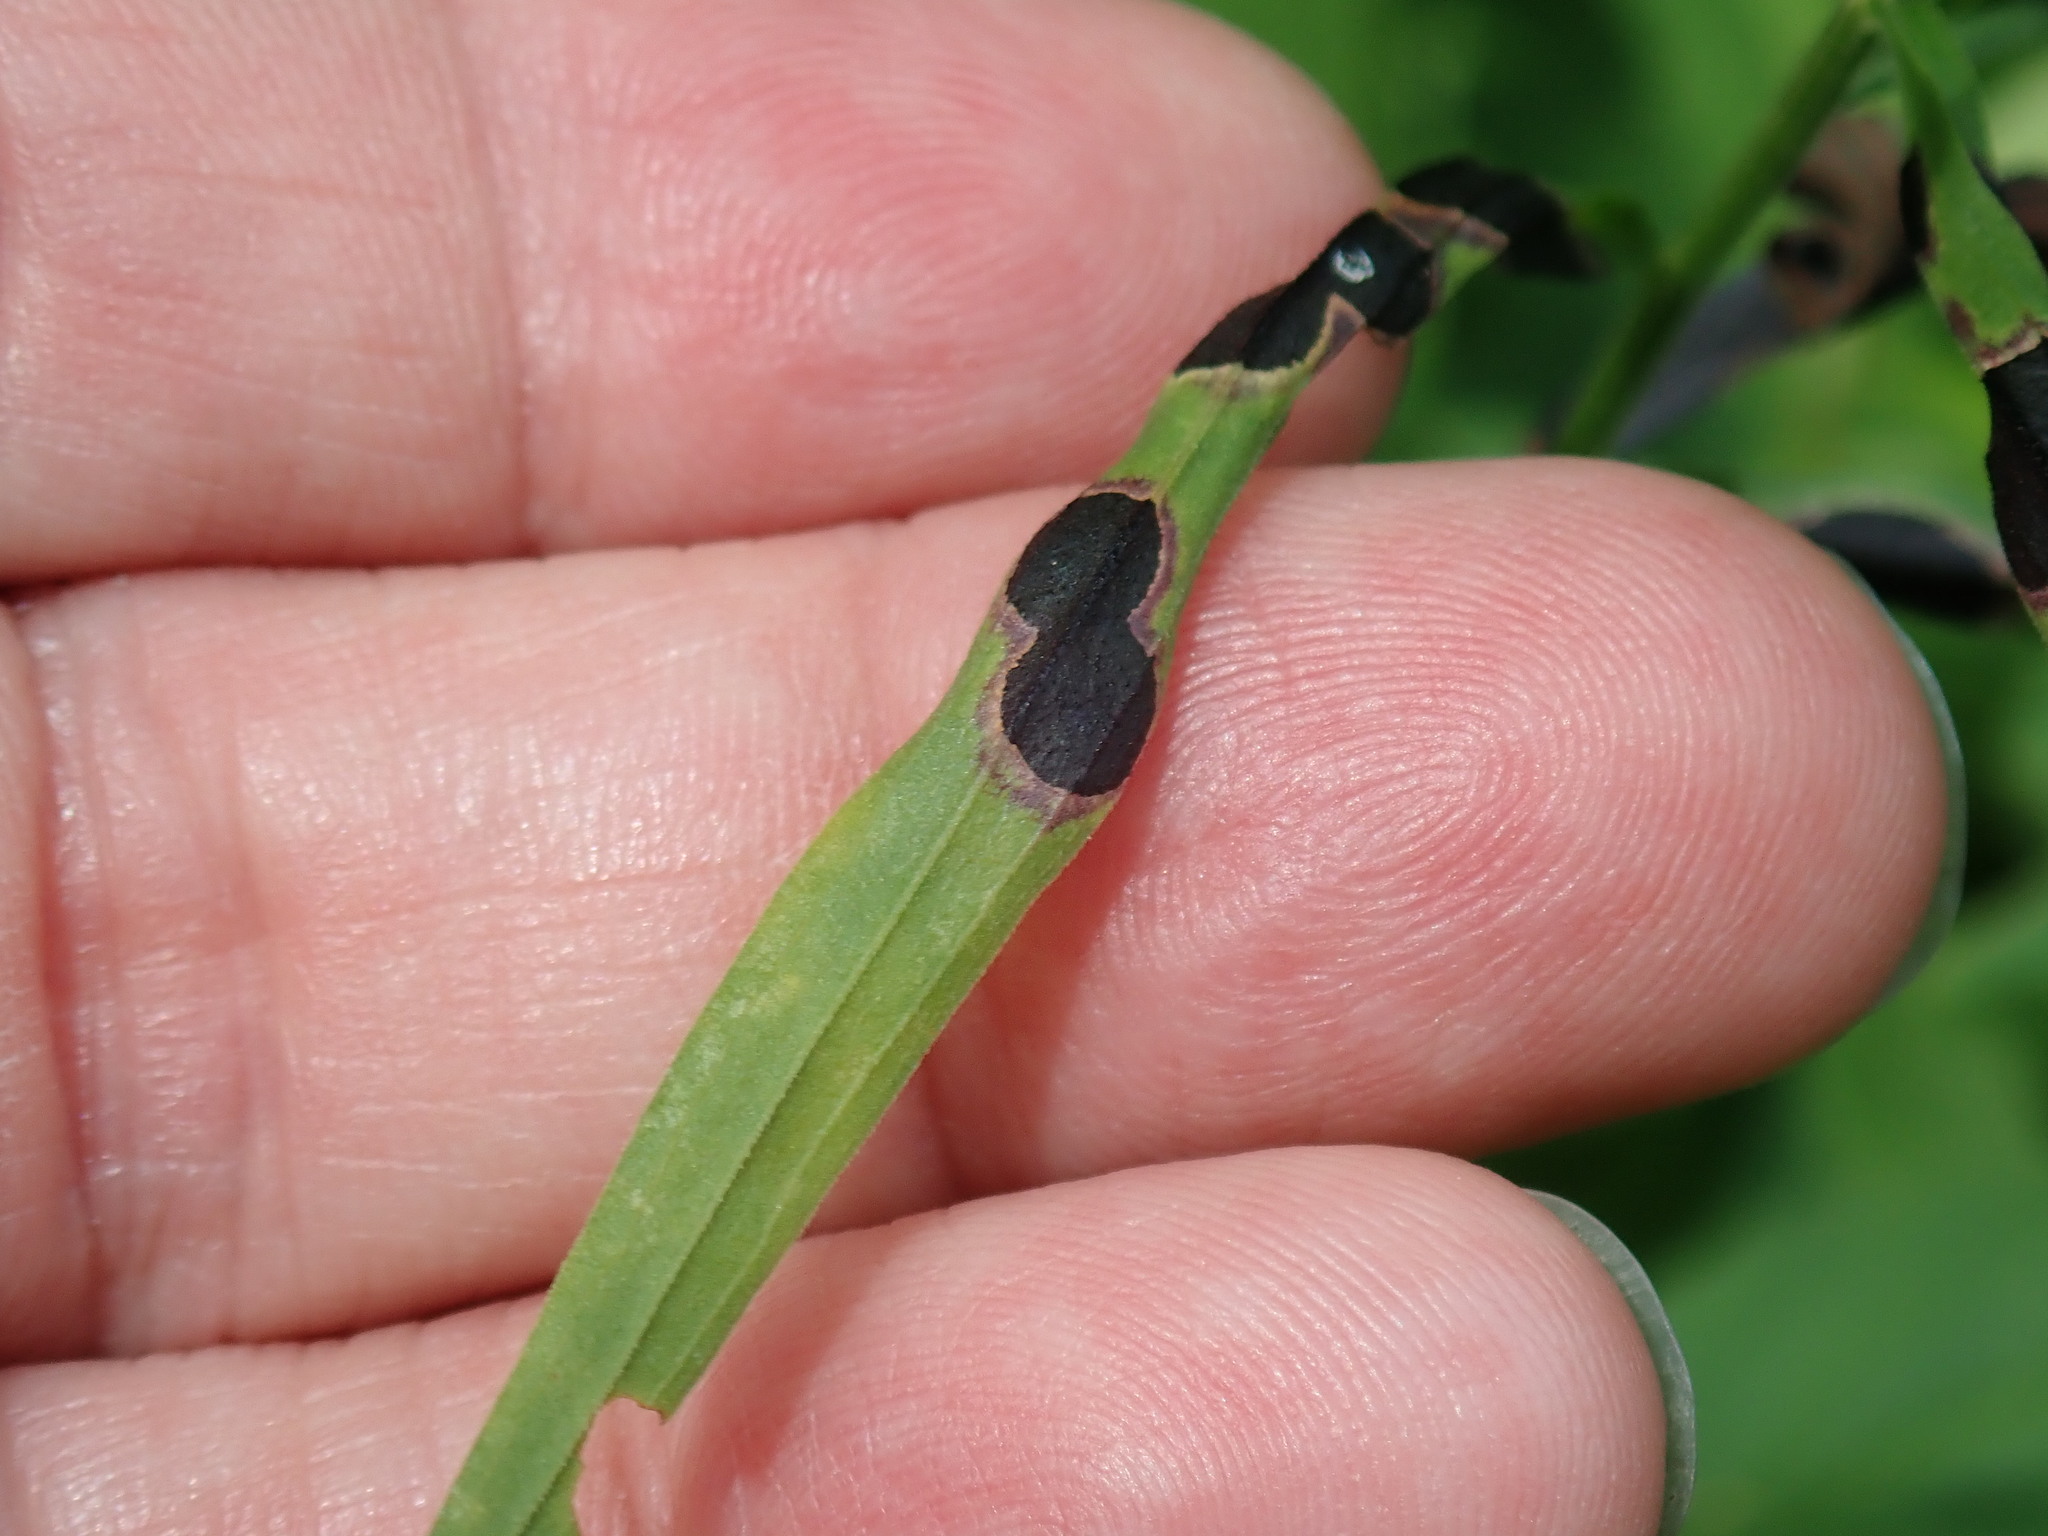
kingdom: Animalia
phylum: Arthropoda
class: Insecta
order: Diptera
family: Cecidomyiidae
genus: Asteromyia
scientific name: Asteromyia euthamiae
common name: Euthamia leaf gall midge
